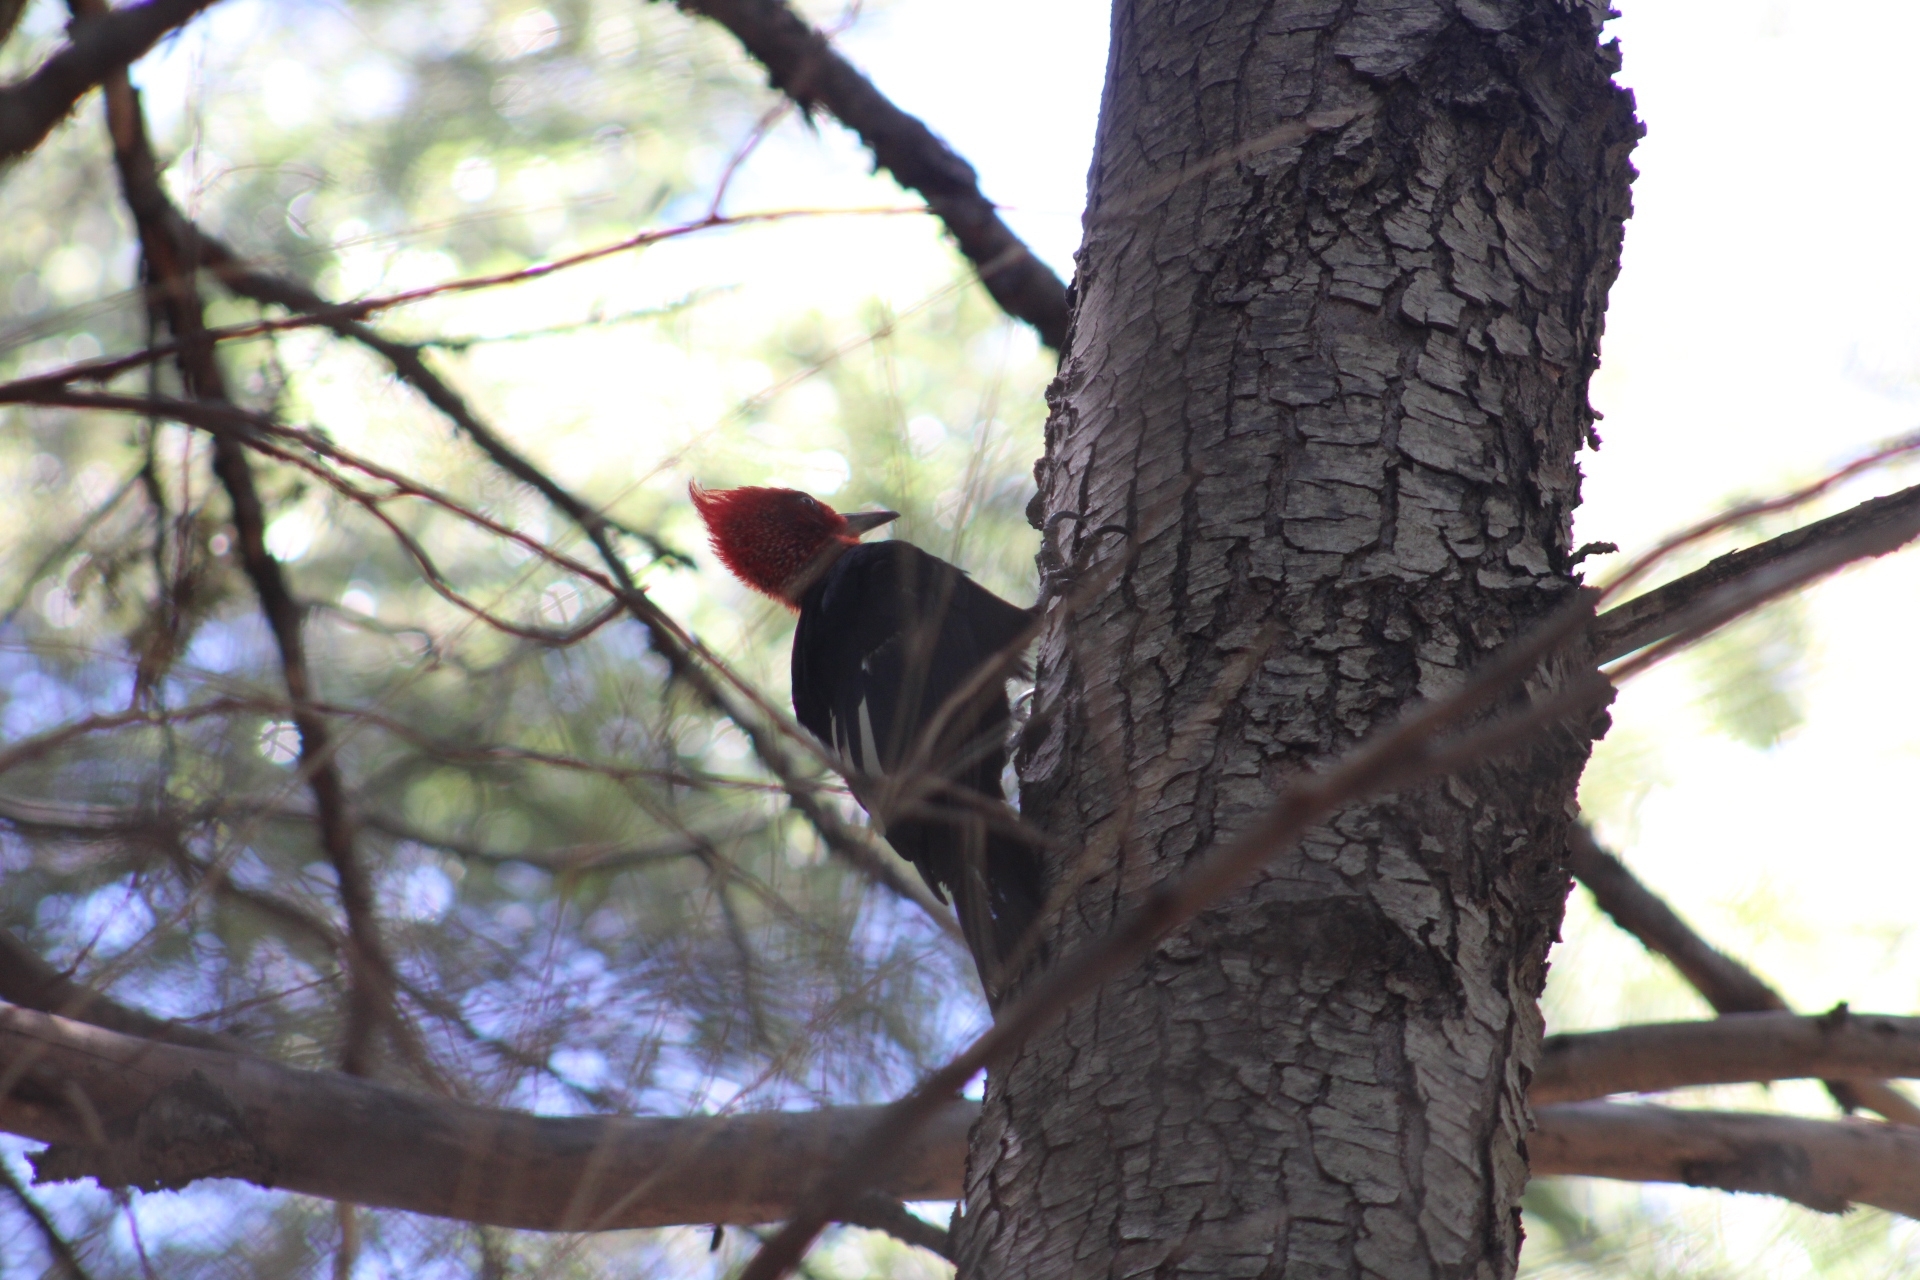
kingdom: Animalia
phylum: Chordata
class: Aves
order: Piciformes
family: Picidae
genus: Campephilus
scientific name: Campephilus magellanicus
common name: Magellanic woodpecker
